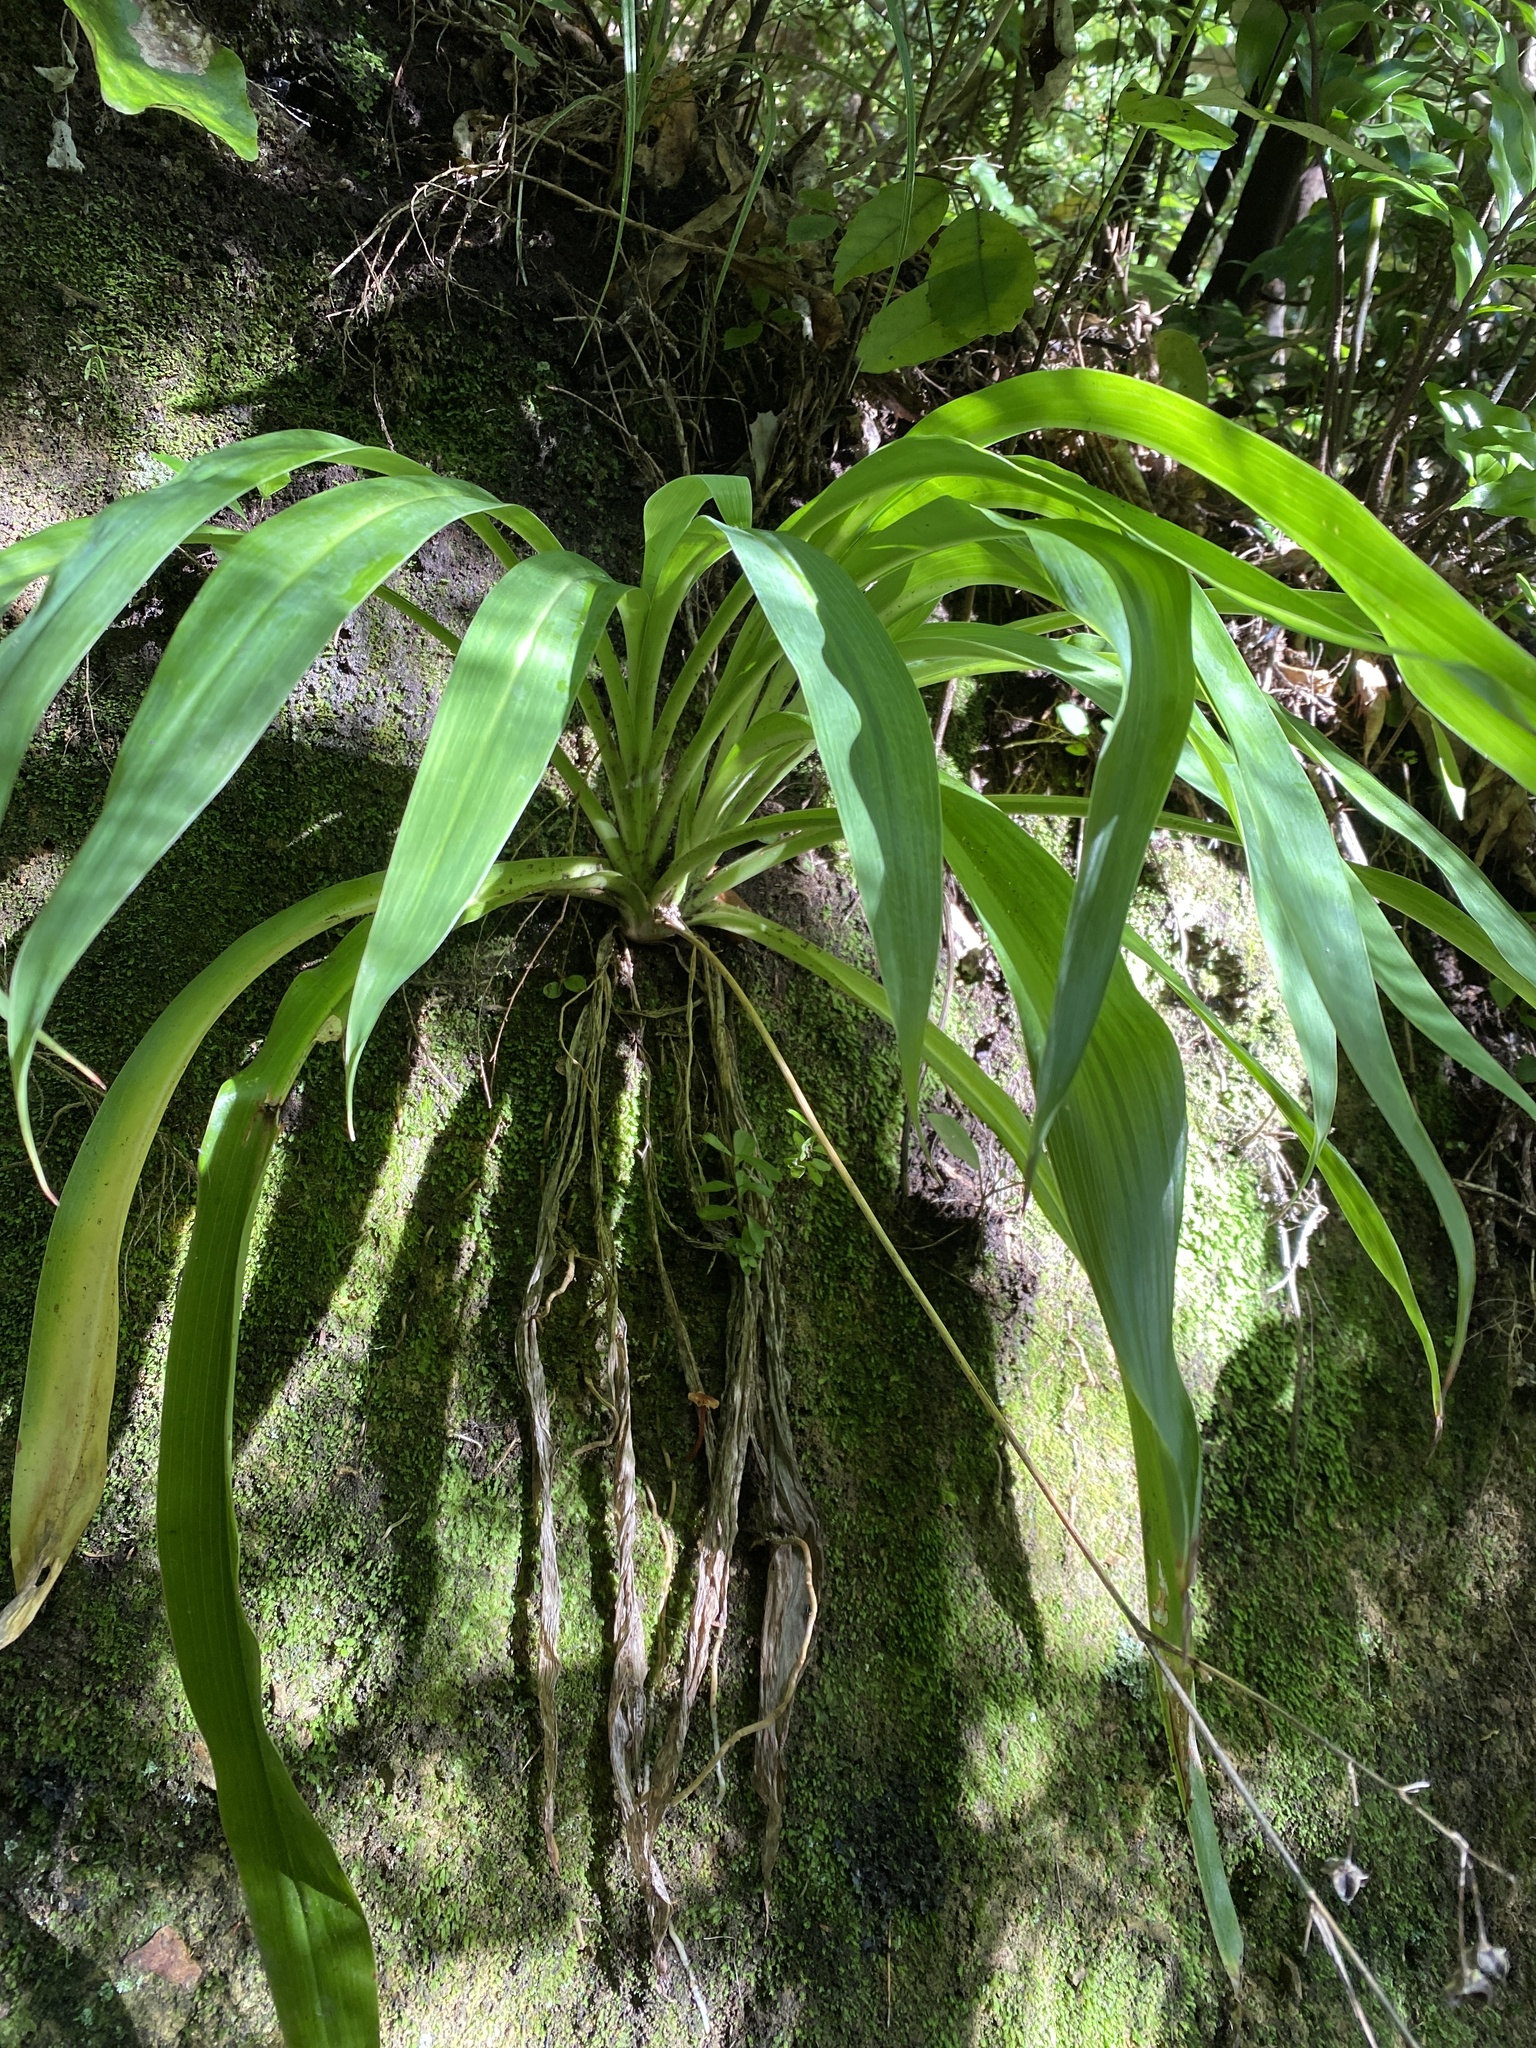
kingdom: Plantae
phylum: Tracheophyta
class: Liliopsida
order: Asparagales
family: Asparagaceae
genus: Arthropodium
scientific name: Arthropodium cirratum
